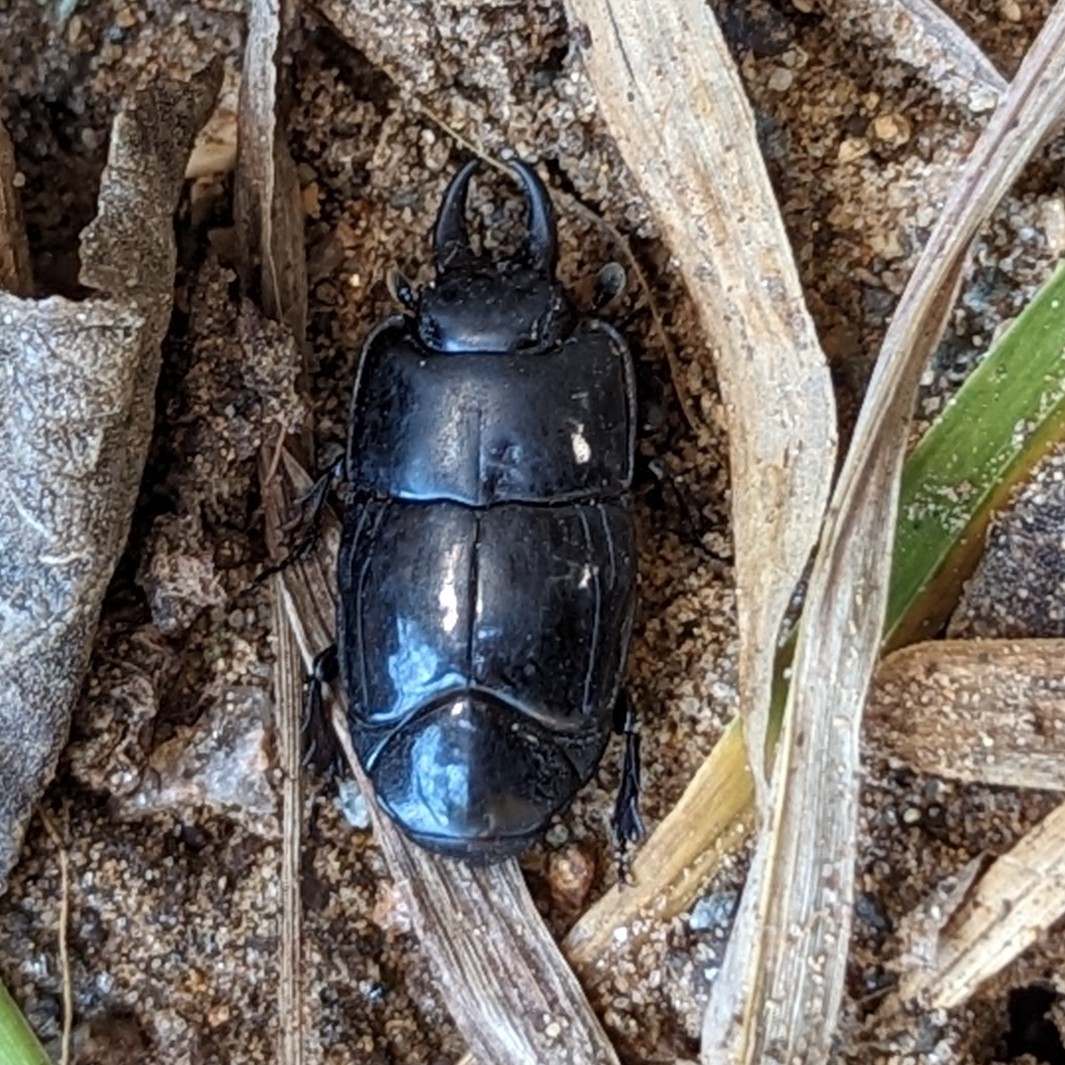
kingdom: Animalia
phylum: Arthropoda
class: Insecta
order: Coleoptera
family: Histeridae
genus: Hololepta
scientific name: Hololepta yucateca
